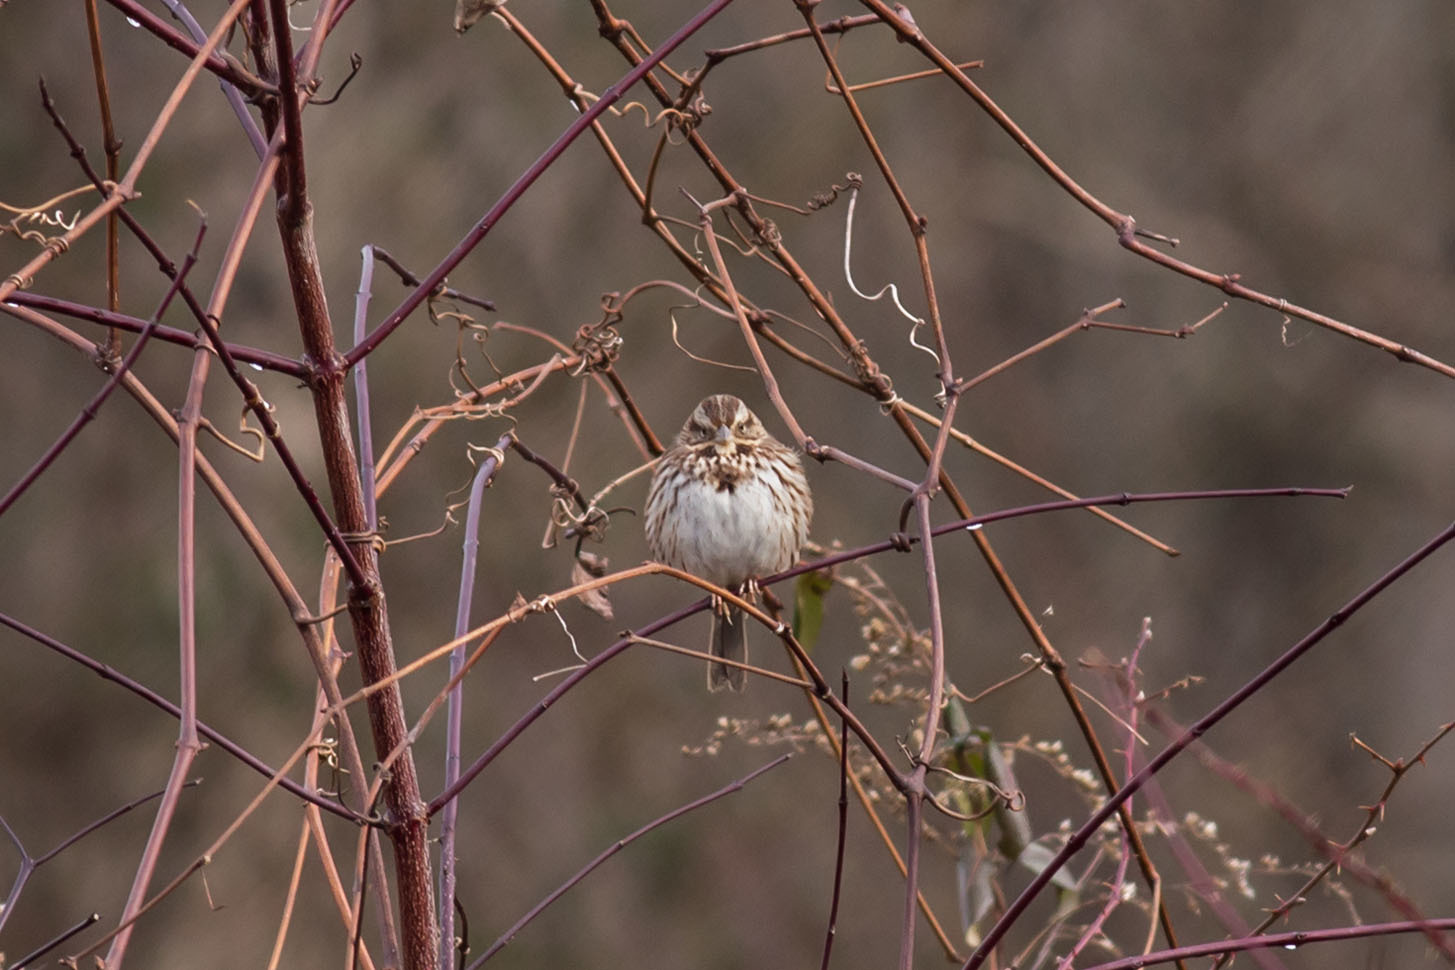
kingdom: Animalia
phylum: Chordata
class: Aves
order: Passeriformes
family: Passerellidae
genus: Melospiza
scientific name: Melospiza melodia
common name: Song sparrow
